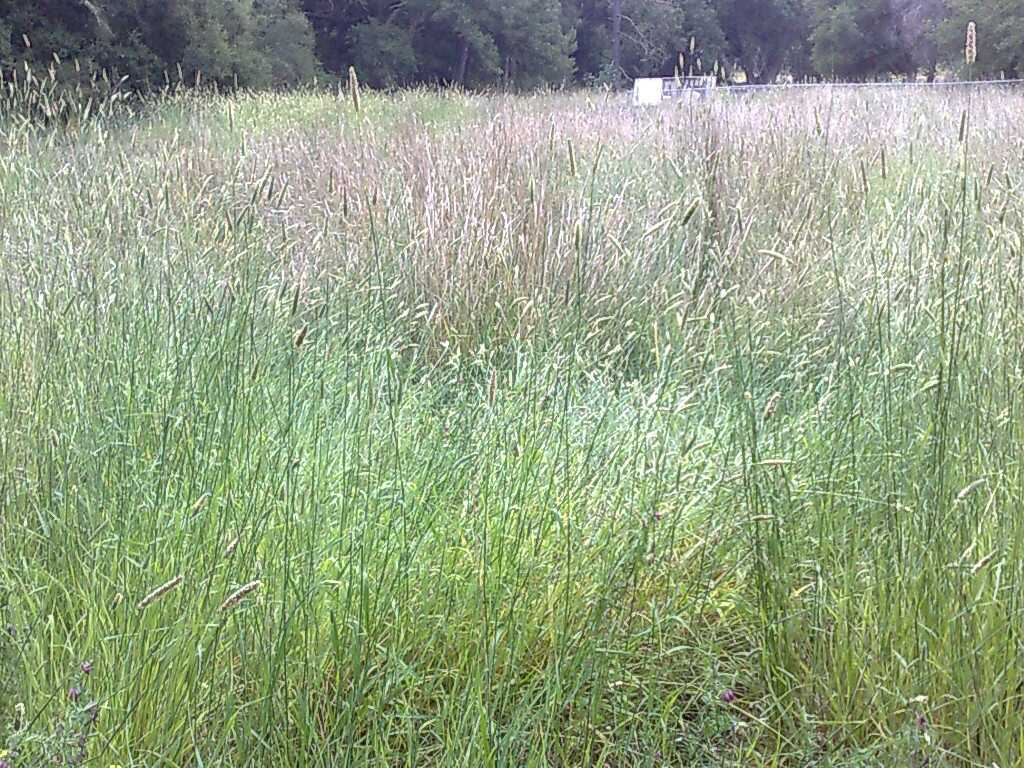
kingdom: Plantae
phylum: Tracheophyta
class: Liliopsida
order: Poales
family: Poaceae
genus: Phalaris
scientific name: Phalaris aquatica
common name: Bulbous canary-grass
